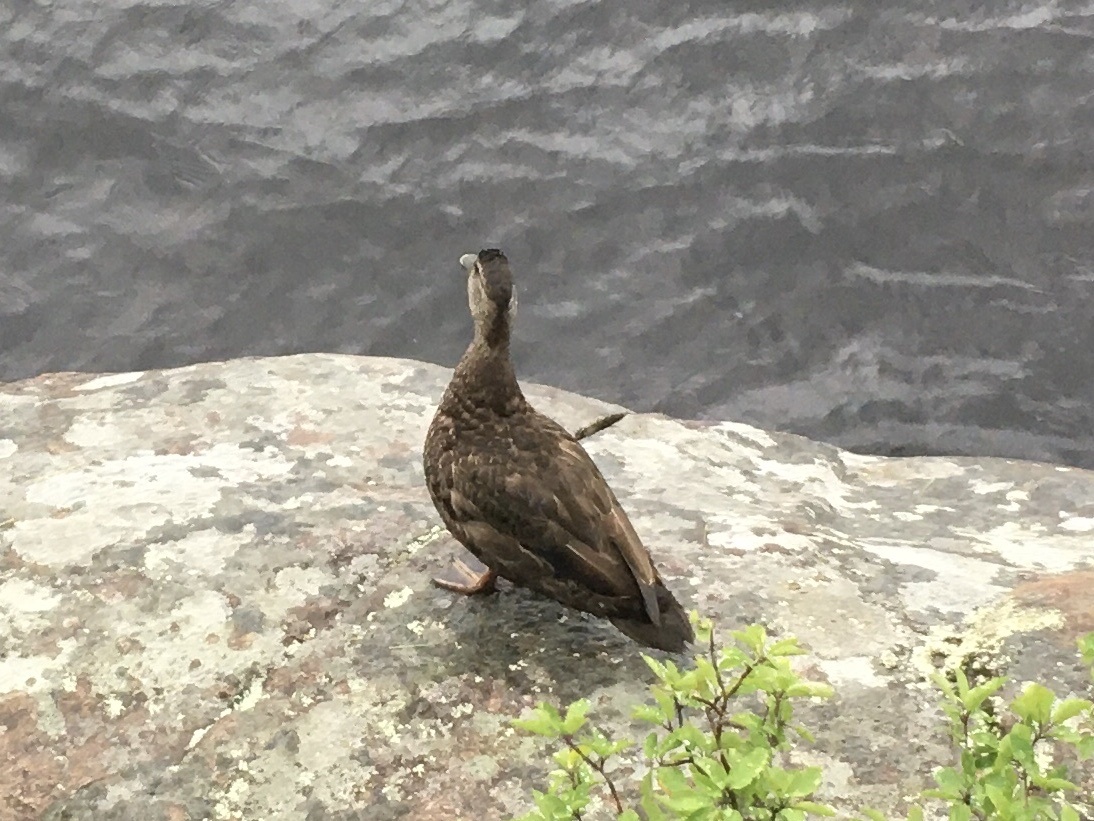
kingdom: Animalia
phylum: Chordata
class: Aves
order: Anseriformes
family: Anatidae
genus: Anas
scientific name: Anas rubripes
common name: American black duck
